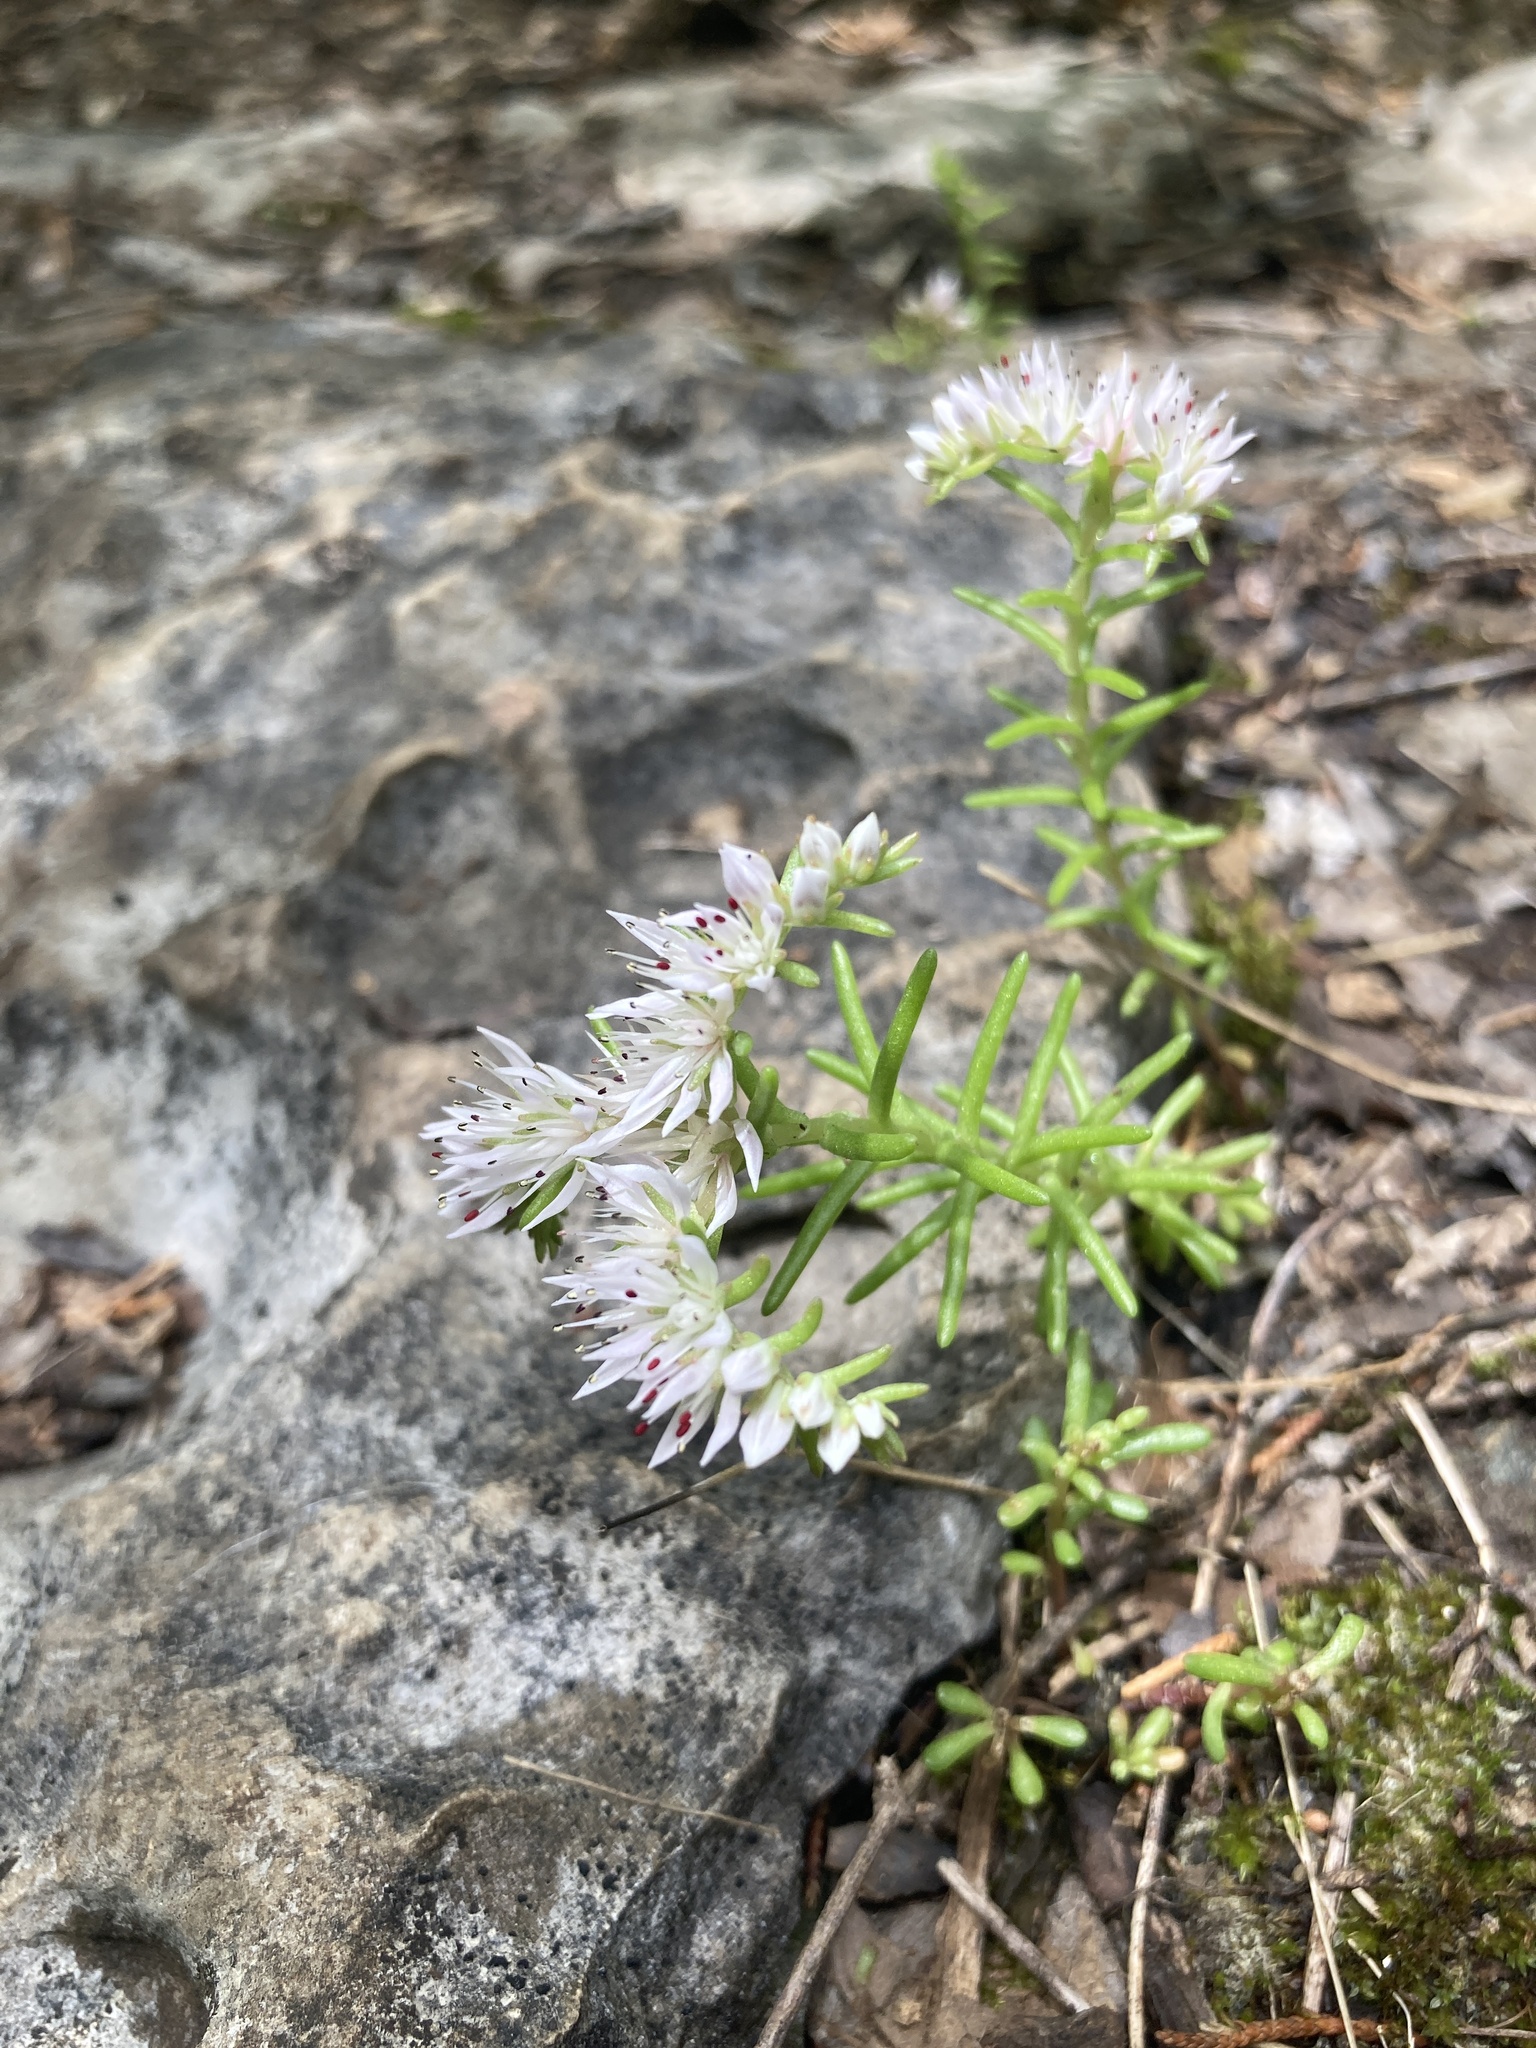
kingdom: Plantae
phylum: Tracheophyta
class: Magnoliopsida
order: Saxifragales
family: Crassulaceae
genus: Sedum
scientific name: Sedum pulchellum
